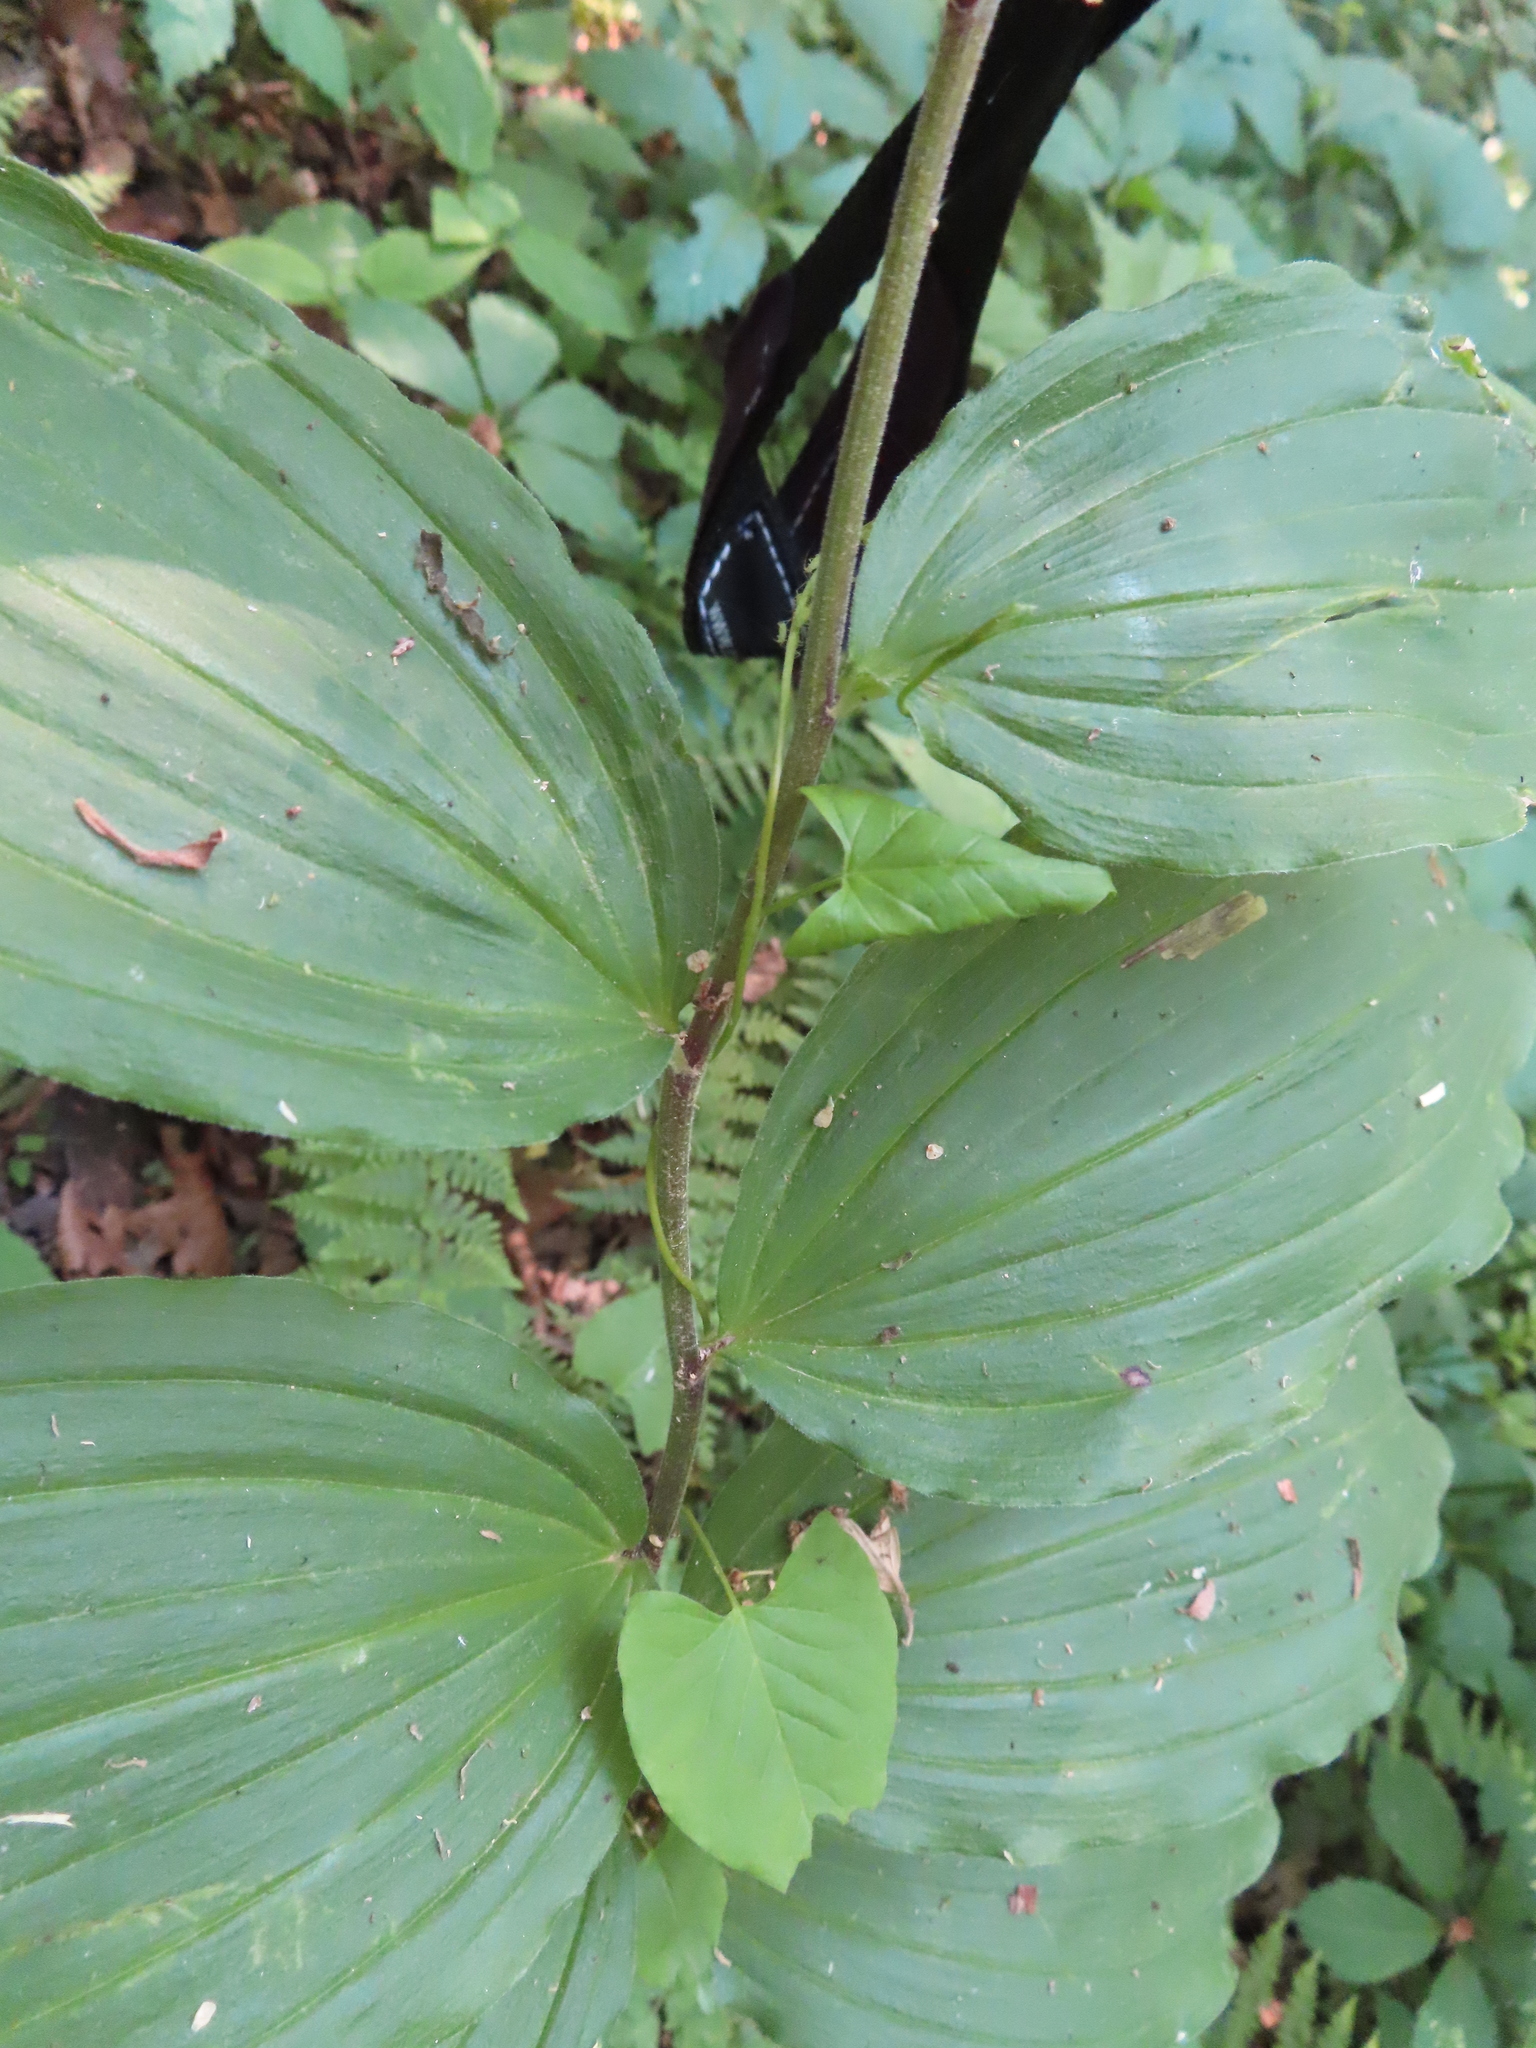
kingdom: Plantae
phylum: Tracheophyta
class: Liliopsida
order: Asparagales
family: Asparagaceae
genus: Maianthemum
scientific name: Maianthemum racemosum
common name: False spikenard
